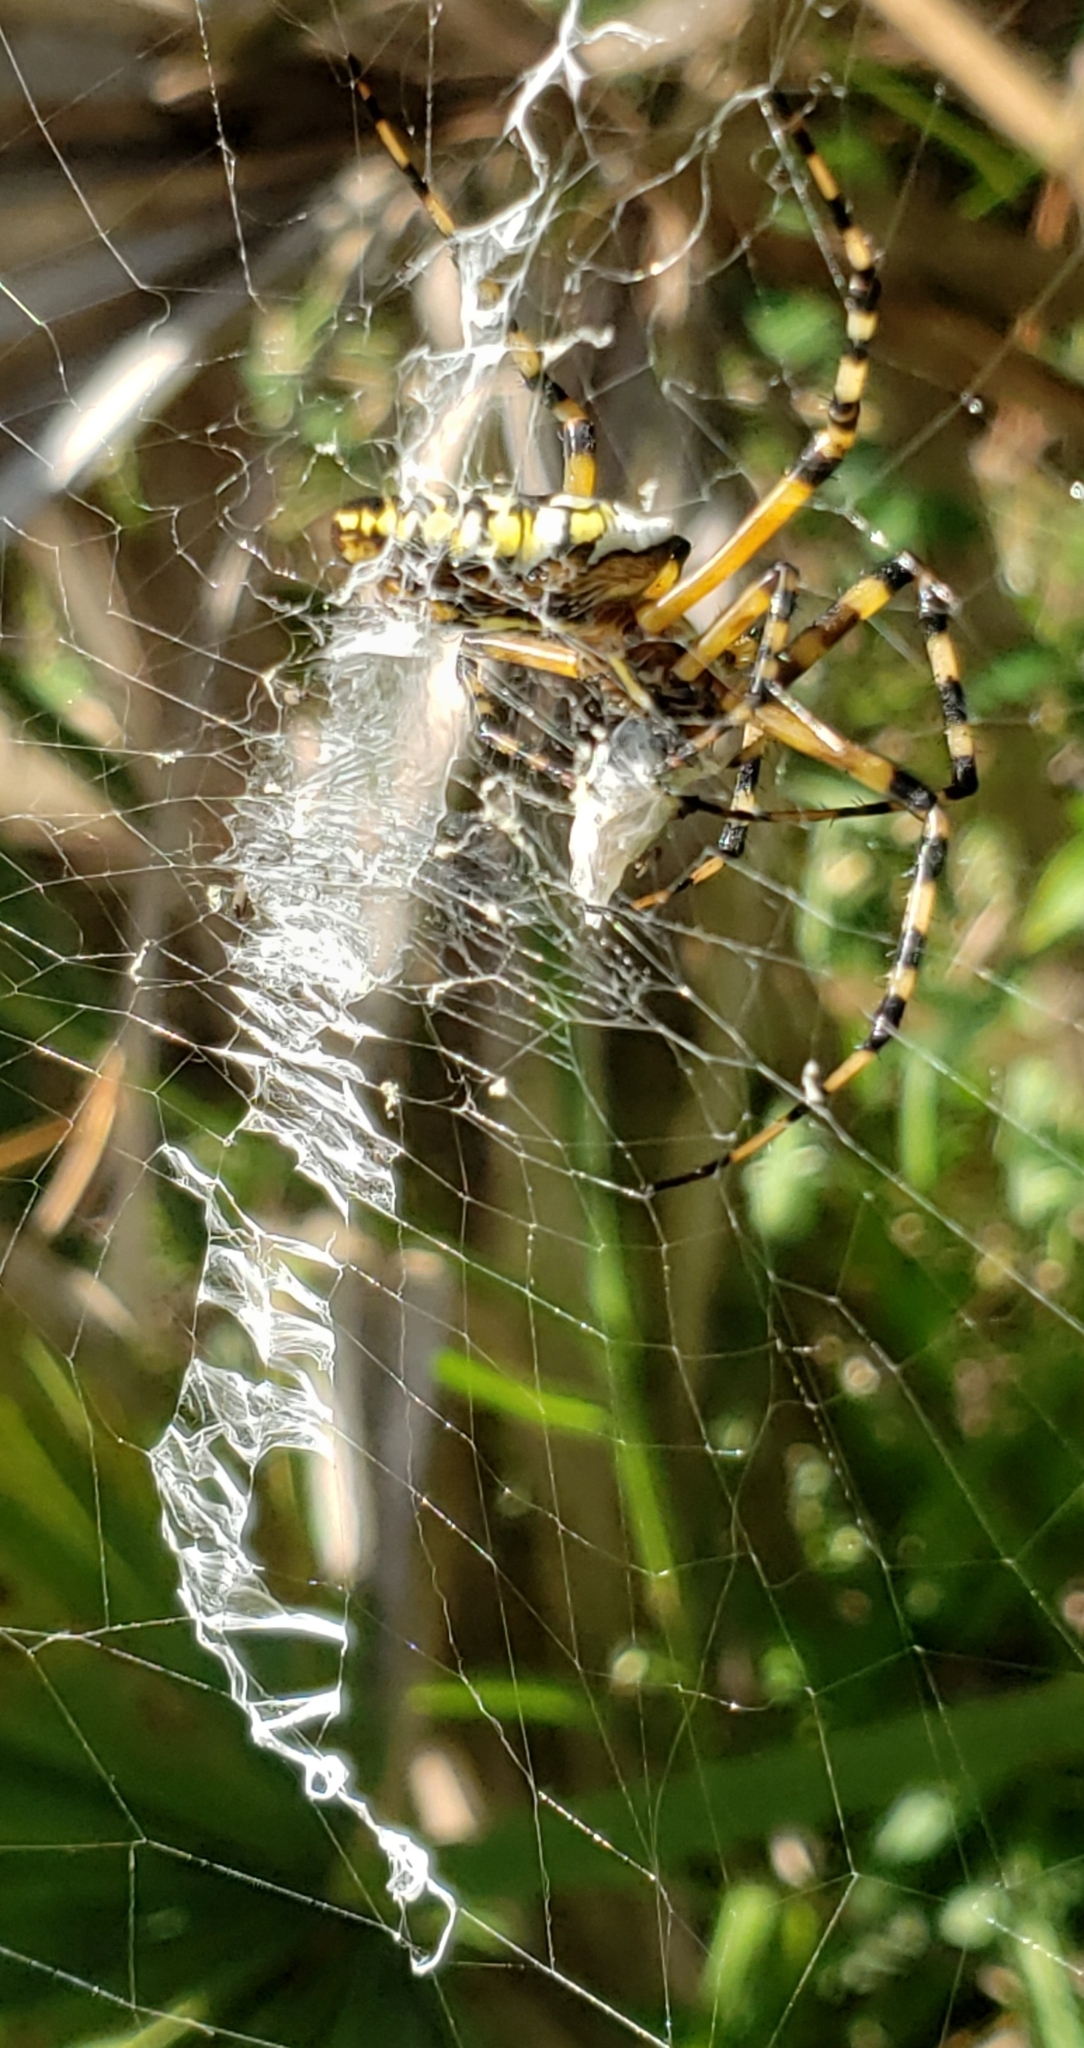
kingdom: Animalia
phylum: Arthropoda
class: Arachnida
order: Araneae
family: Araneidae
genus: Argiope
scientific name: Argiope aurantia
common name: Orb weavers
